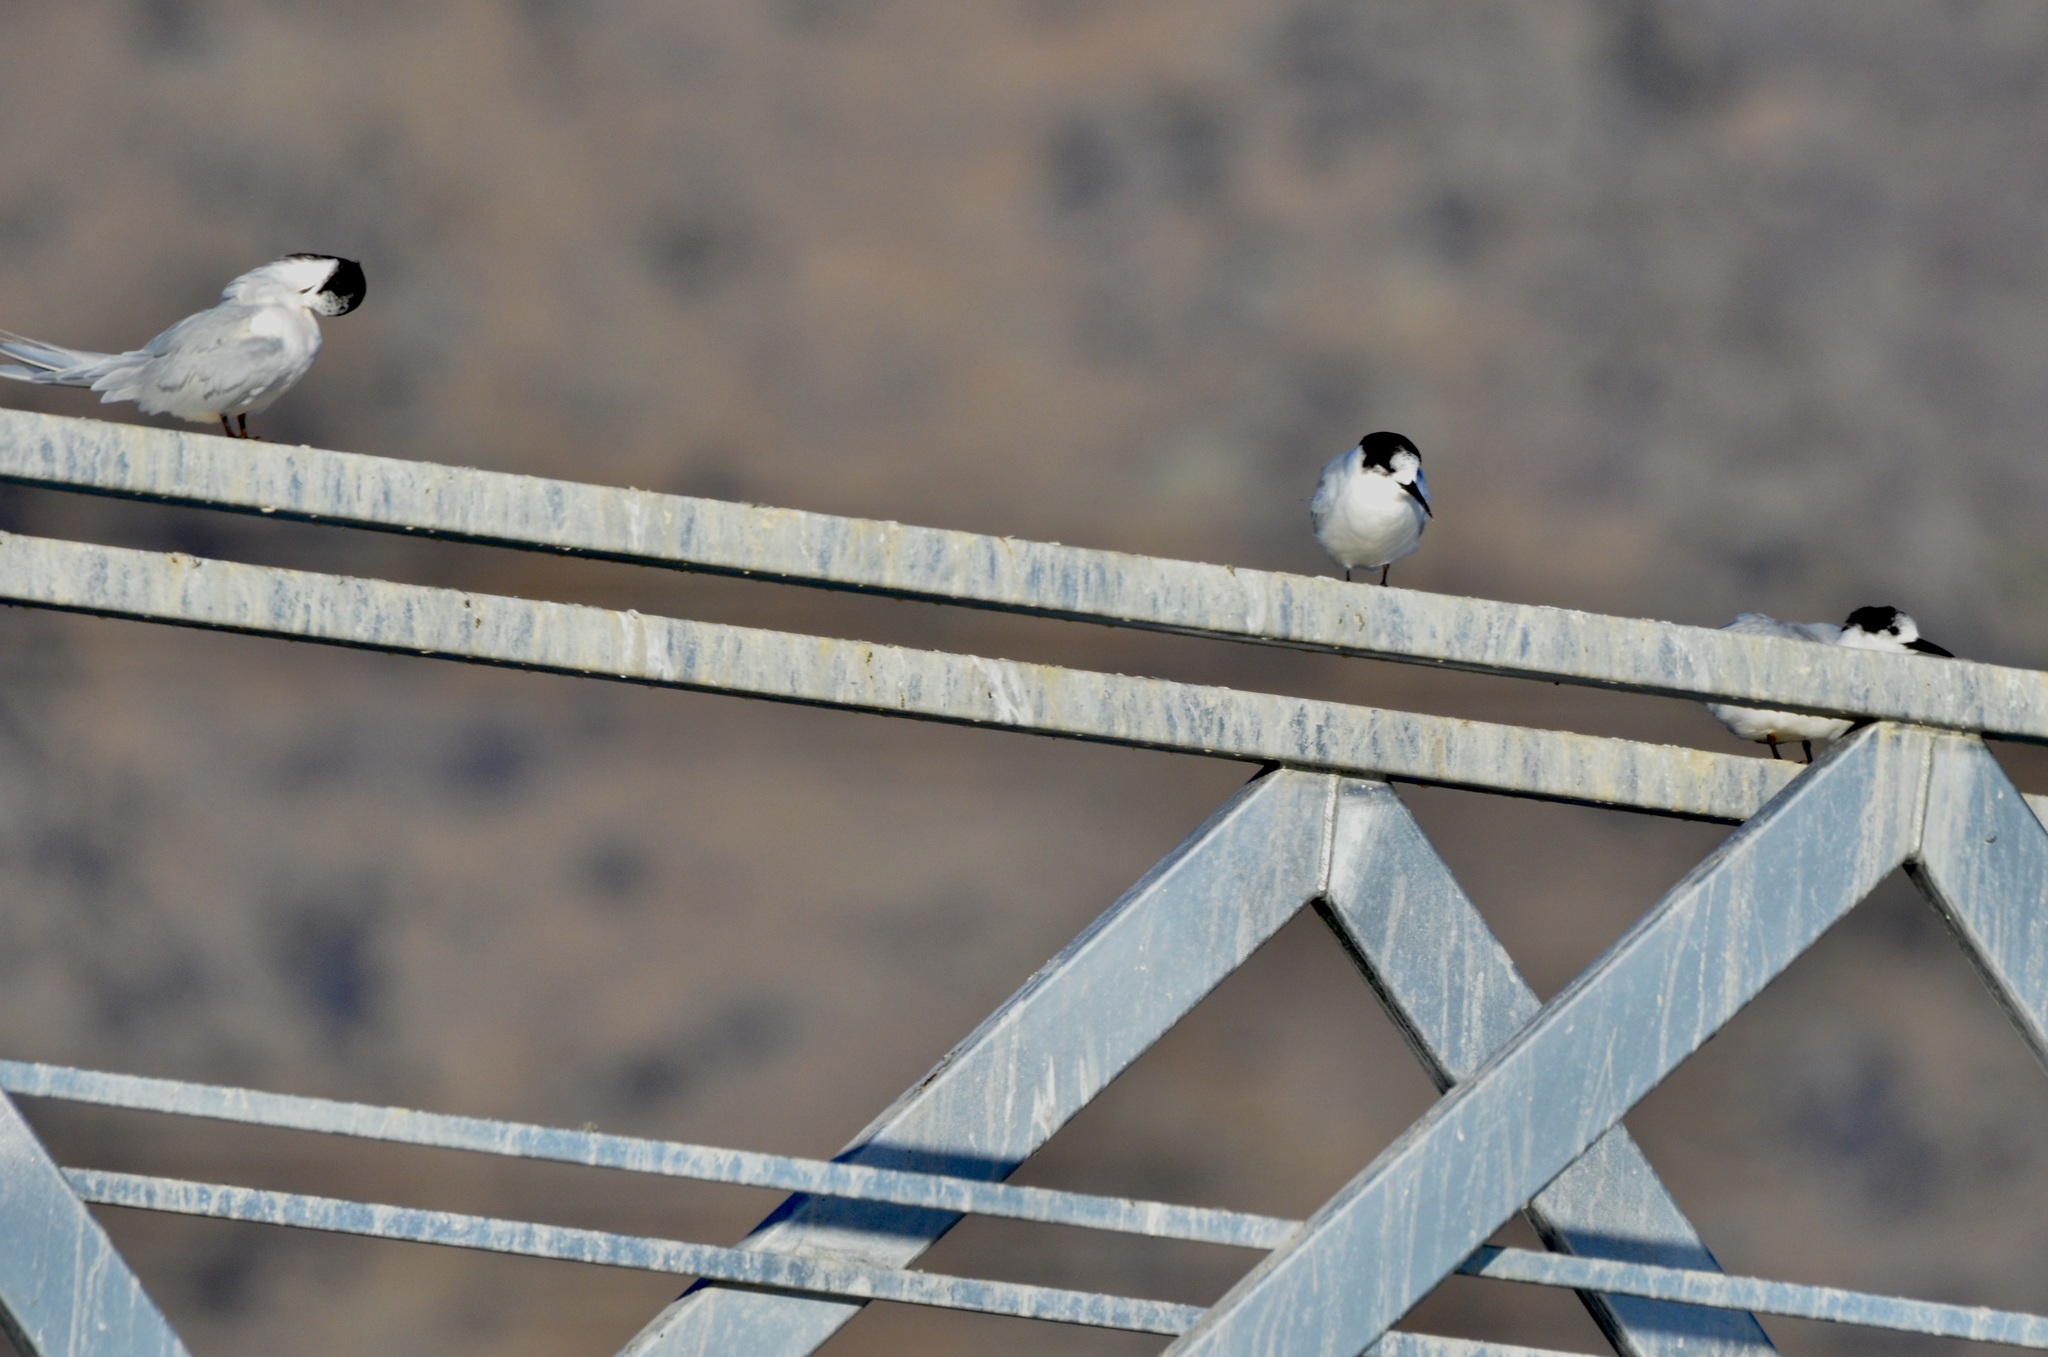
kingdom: Animalia
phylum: Chordata
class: Aves
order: Charadriiformes
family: Laridae
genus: Sterna
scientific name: Sterna striata
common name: White-fronted tern
